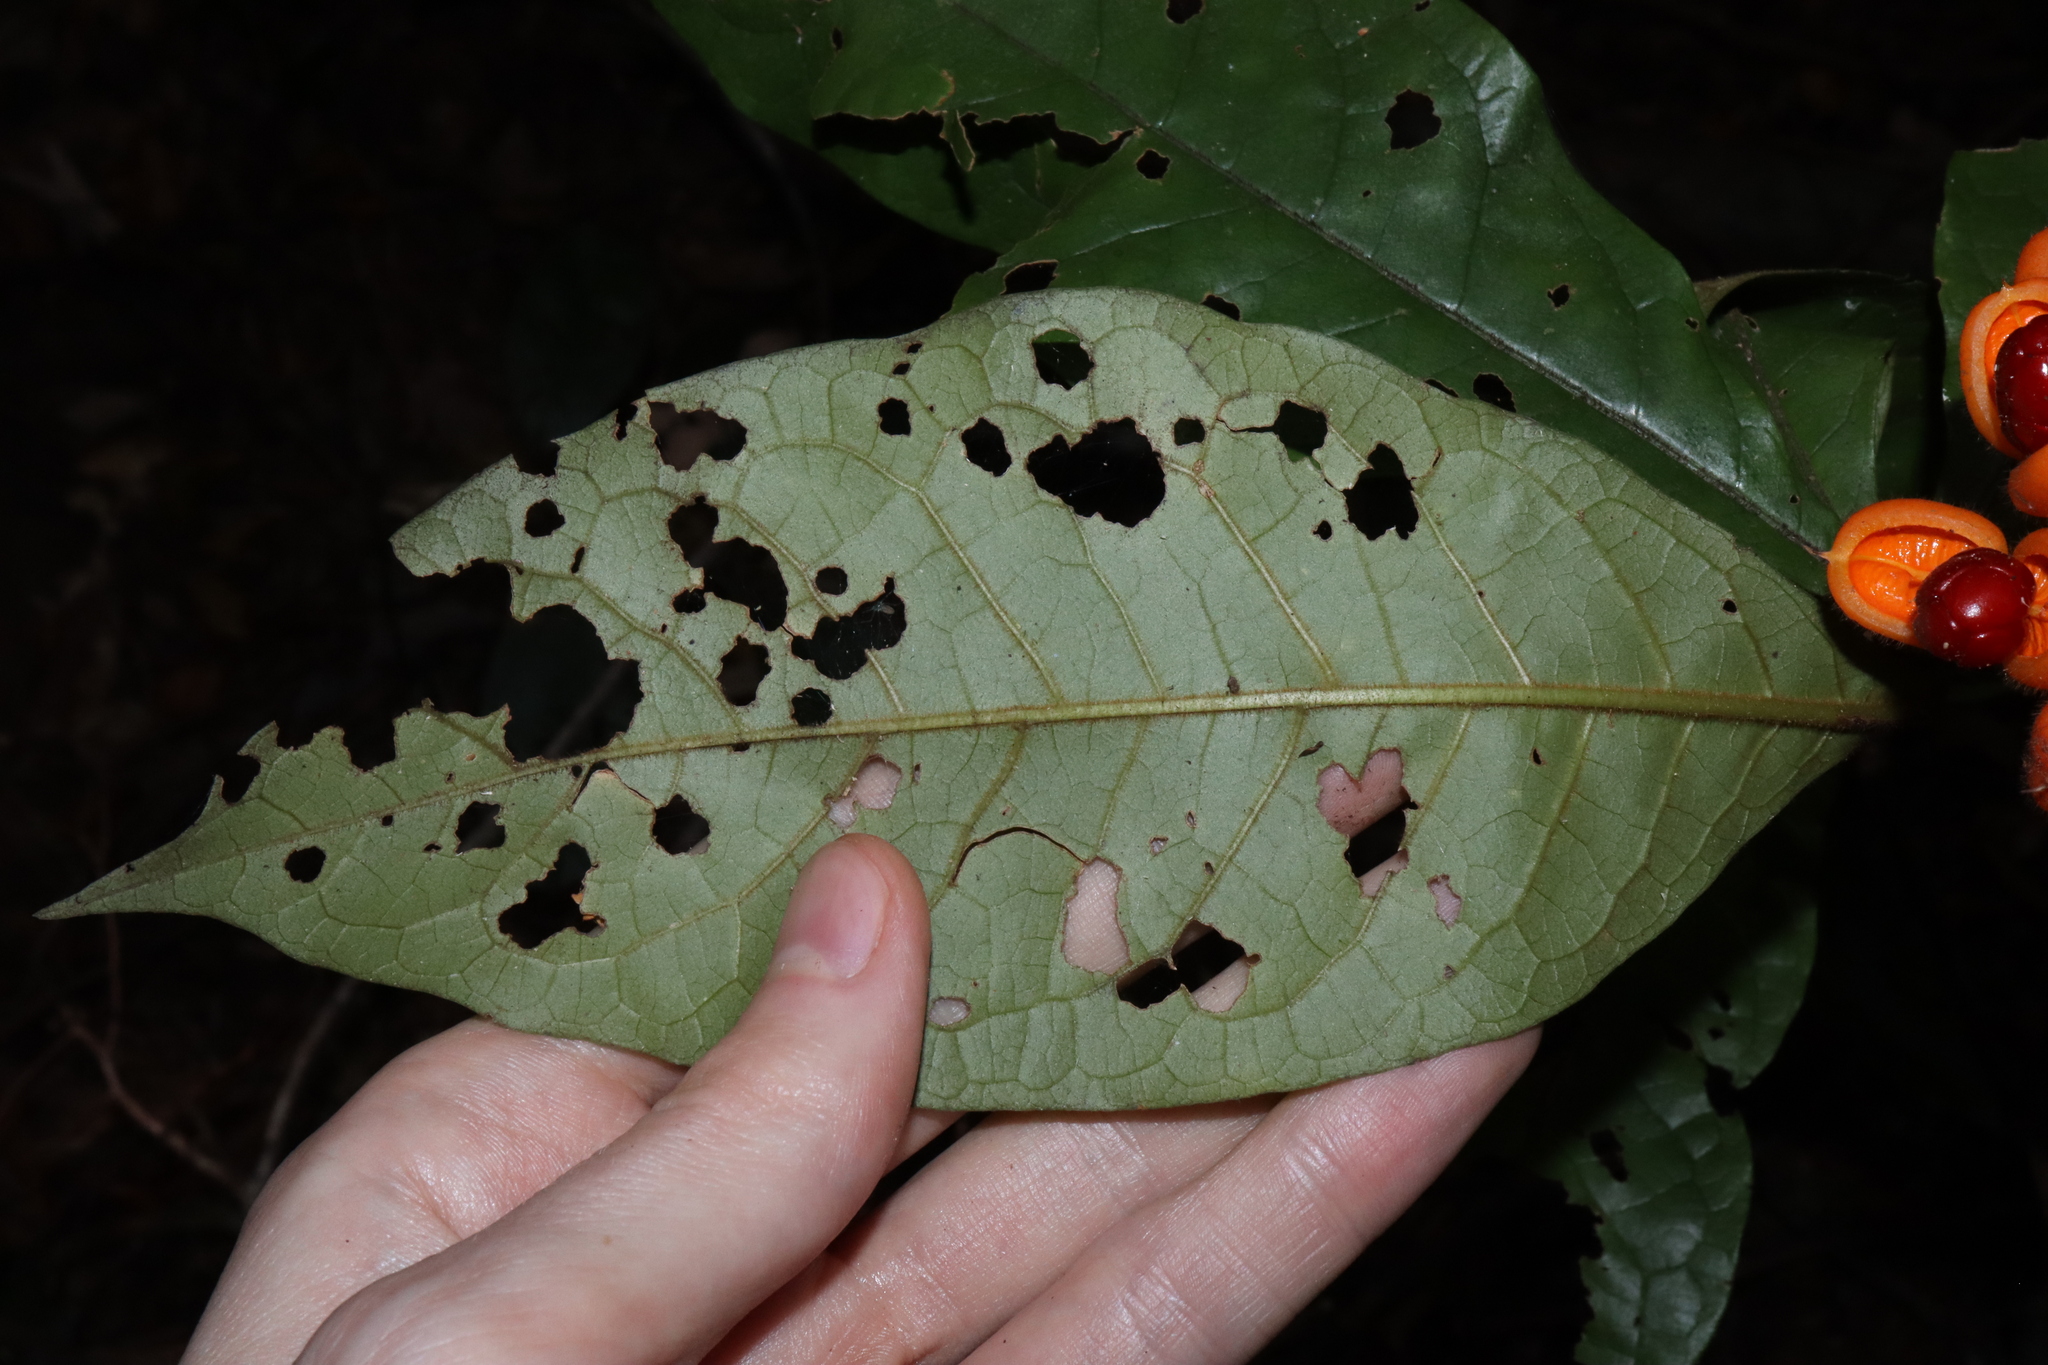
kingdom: Plantae
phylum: Tracheophyta
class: Magnoliopsida
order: Apiales
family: Pittosporaceae
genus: Pittosporum
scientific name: Pittosporum rubiginosum
